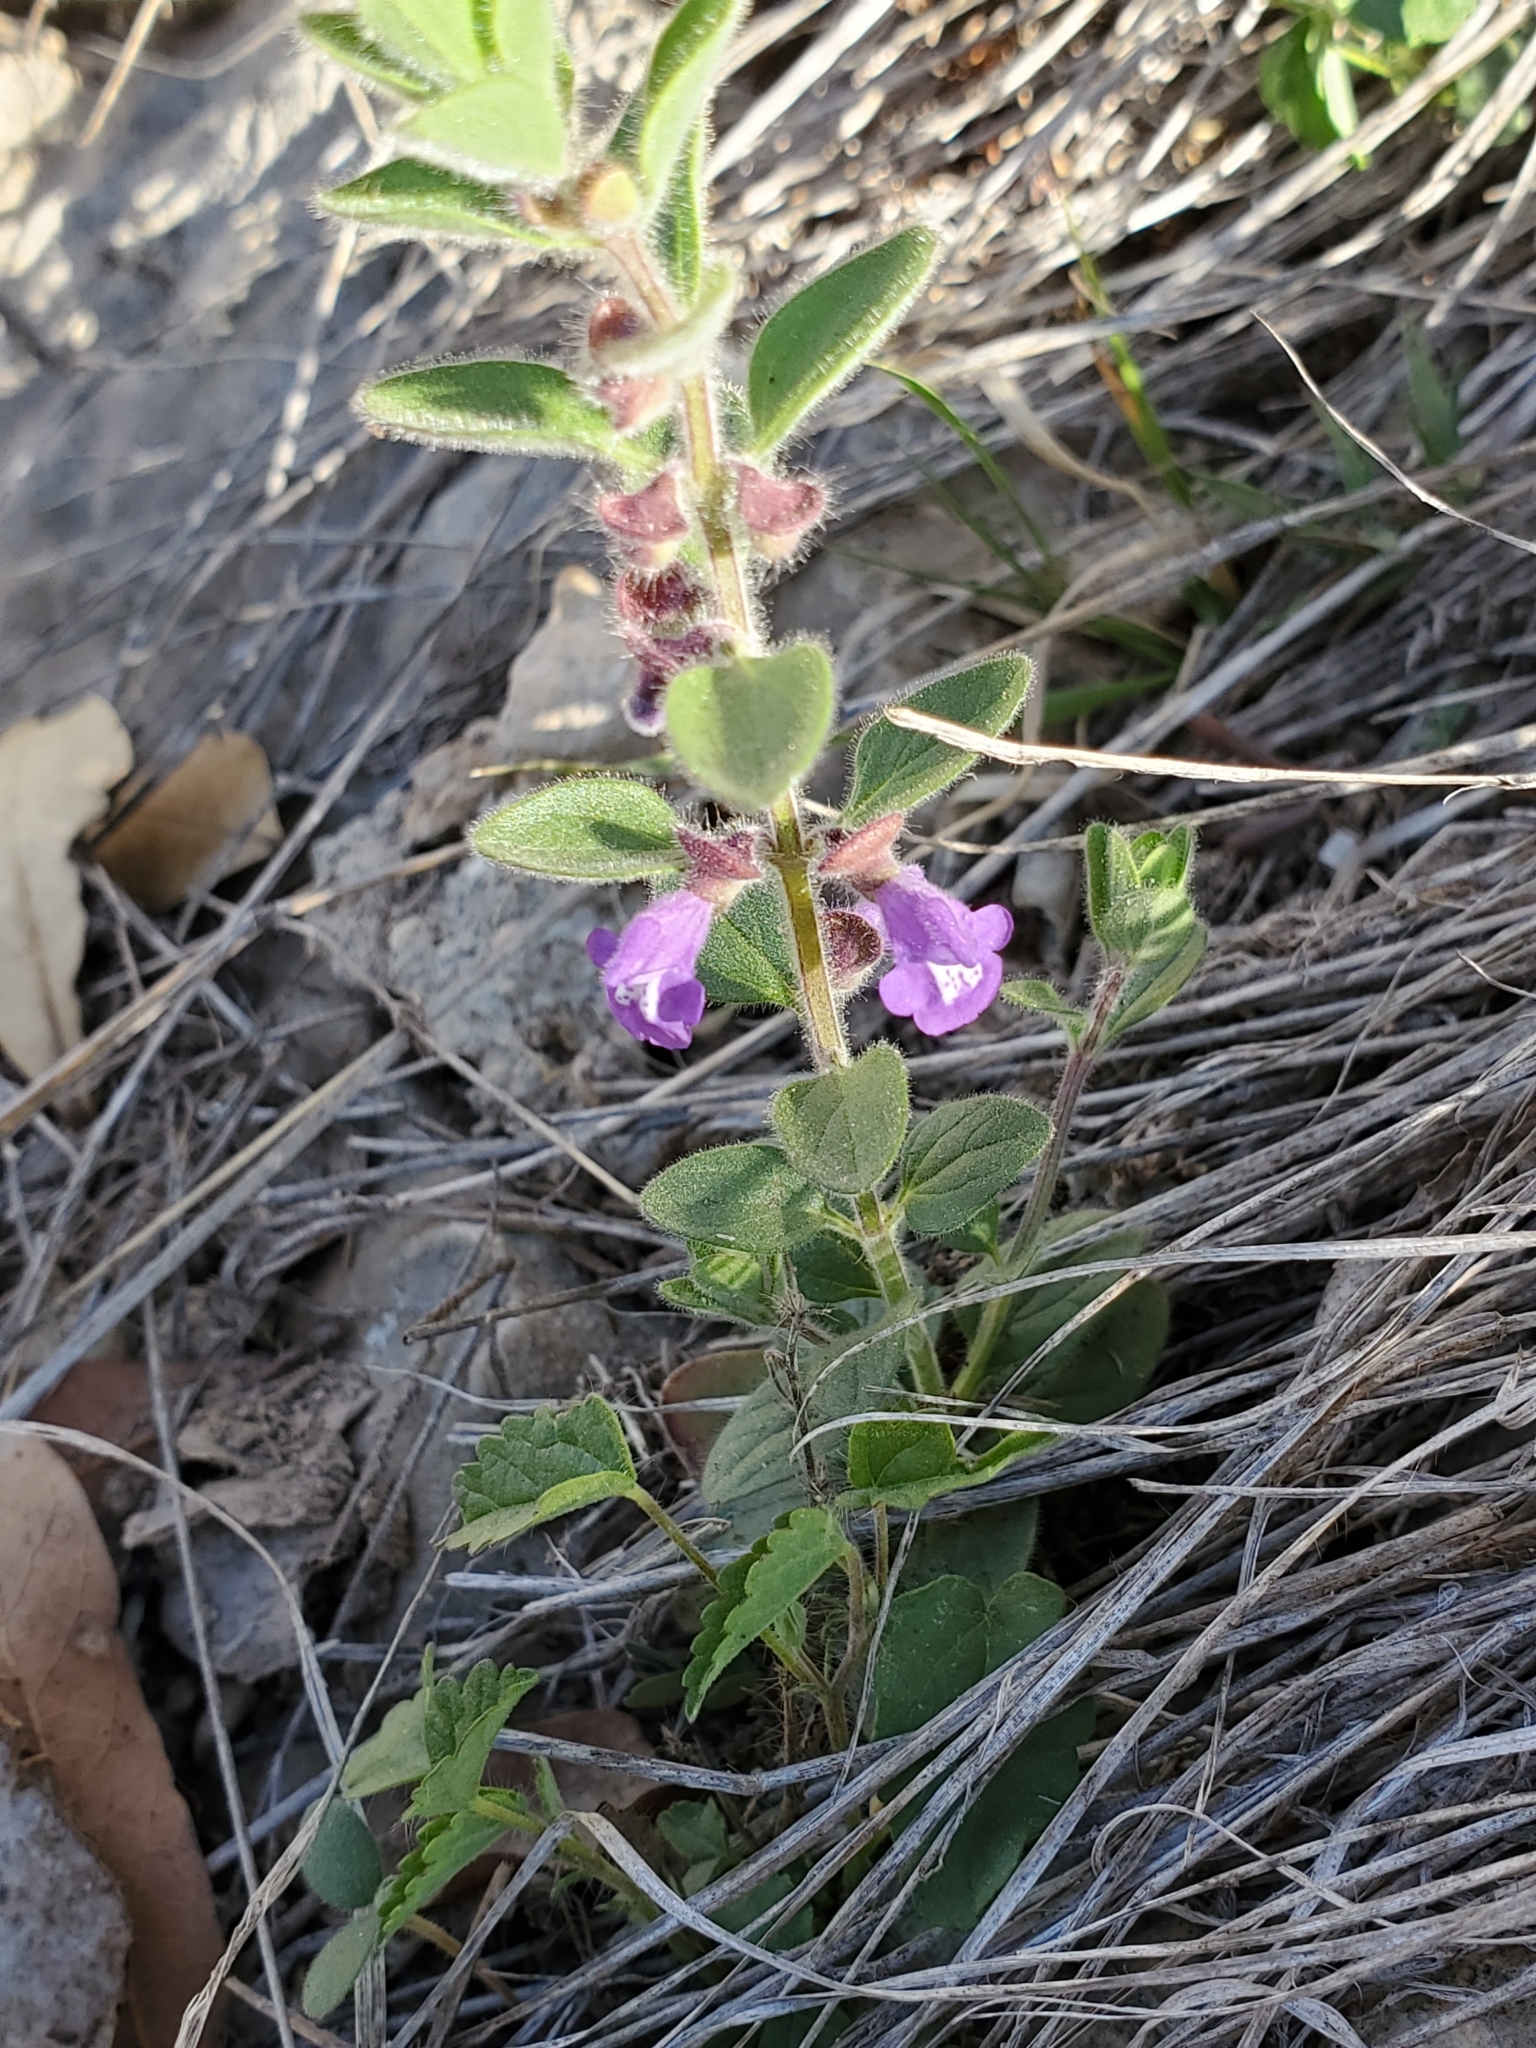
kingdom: Plantae
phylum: Tracheophyta
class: Magnoliopsida
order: Lamiales
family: Lamiaceae
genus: Scutellaria
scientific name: Scutellaria drummondii
